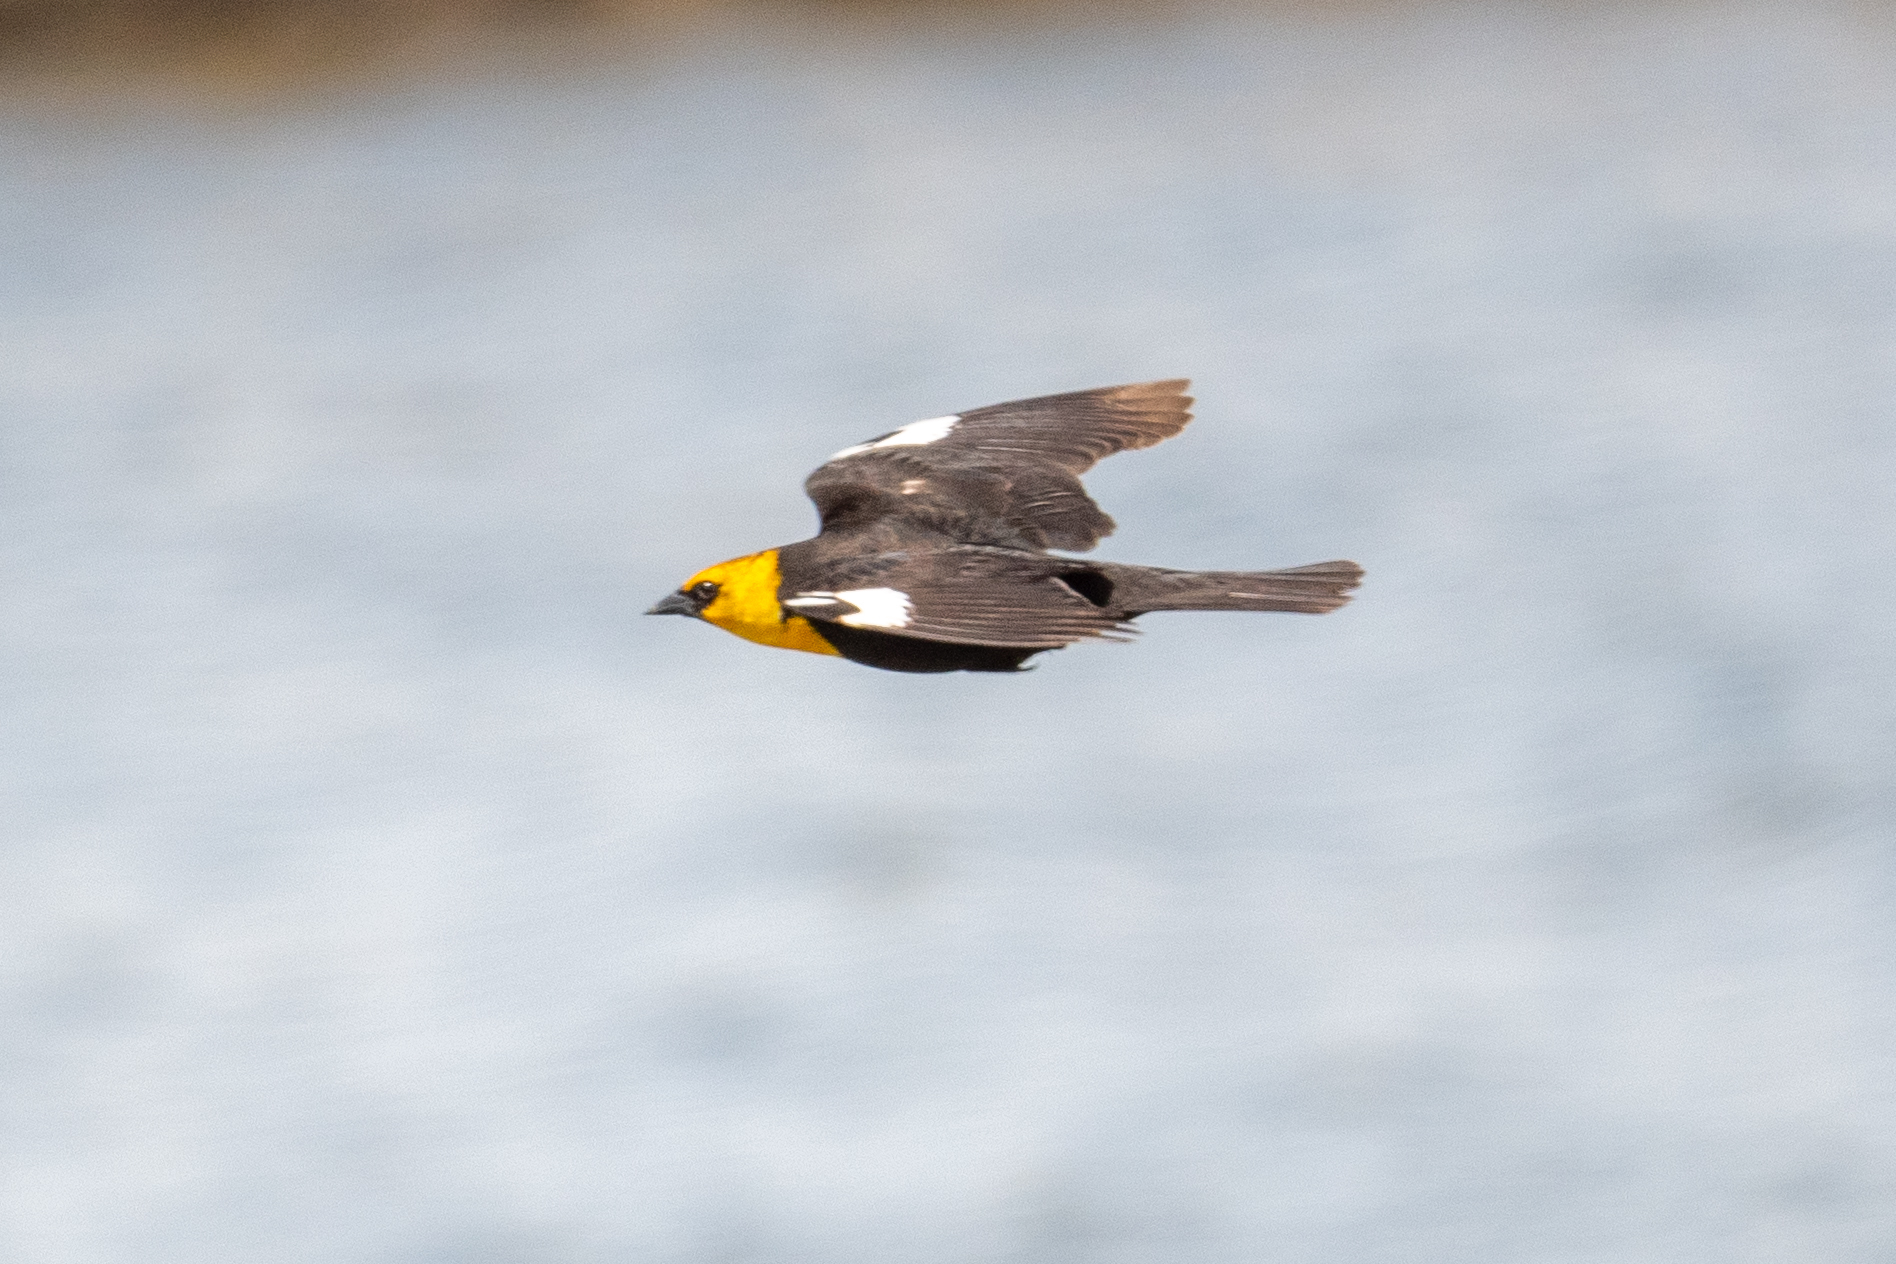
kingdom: Animalia
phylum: Chordata
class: Aves
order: Passeriformes
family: Icteridae
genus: Xanthocephalus
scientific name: Xanthocephalus xanthocephalus
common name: Yellow-headed blackbird
